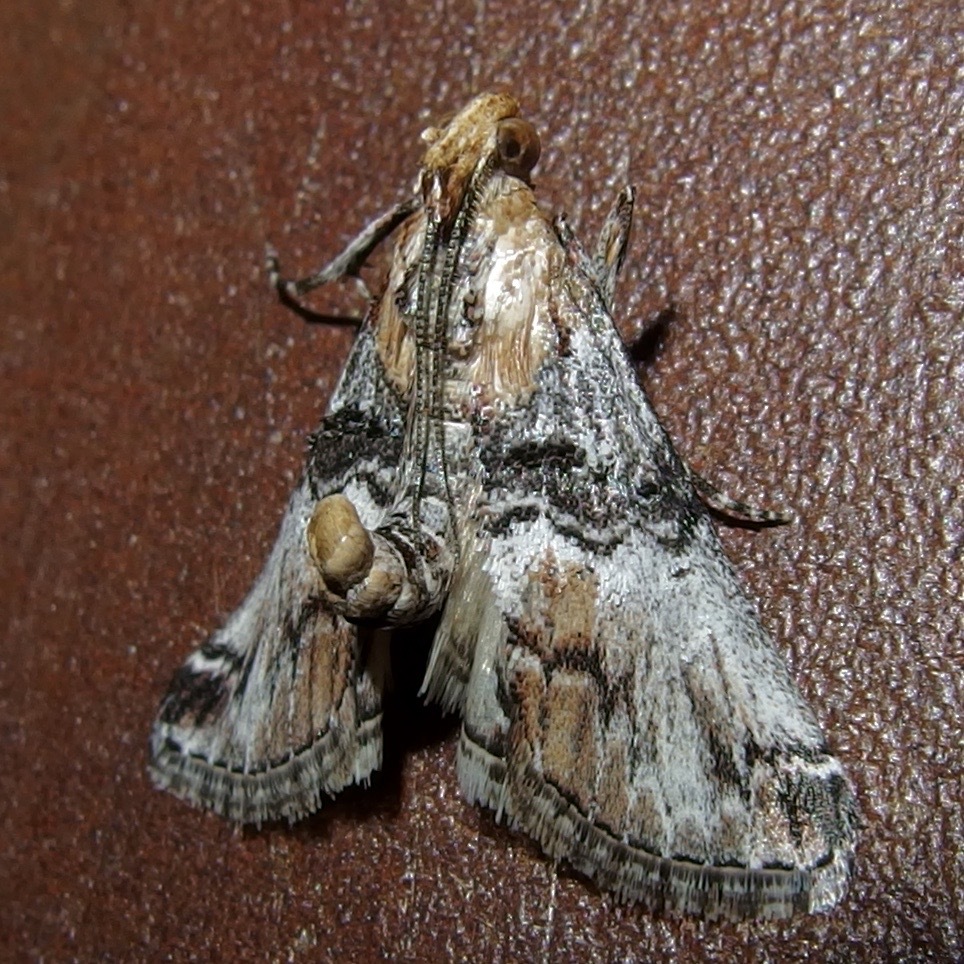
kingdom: Animalia
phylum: Arthropoda
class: Insecta
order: Lepidoptera
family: Pyralidae
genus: Toripalpus
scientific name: Toripalpus trabalis
